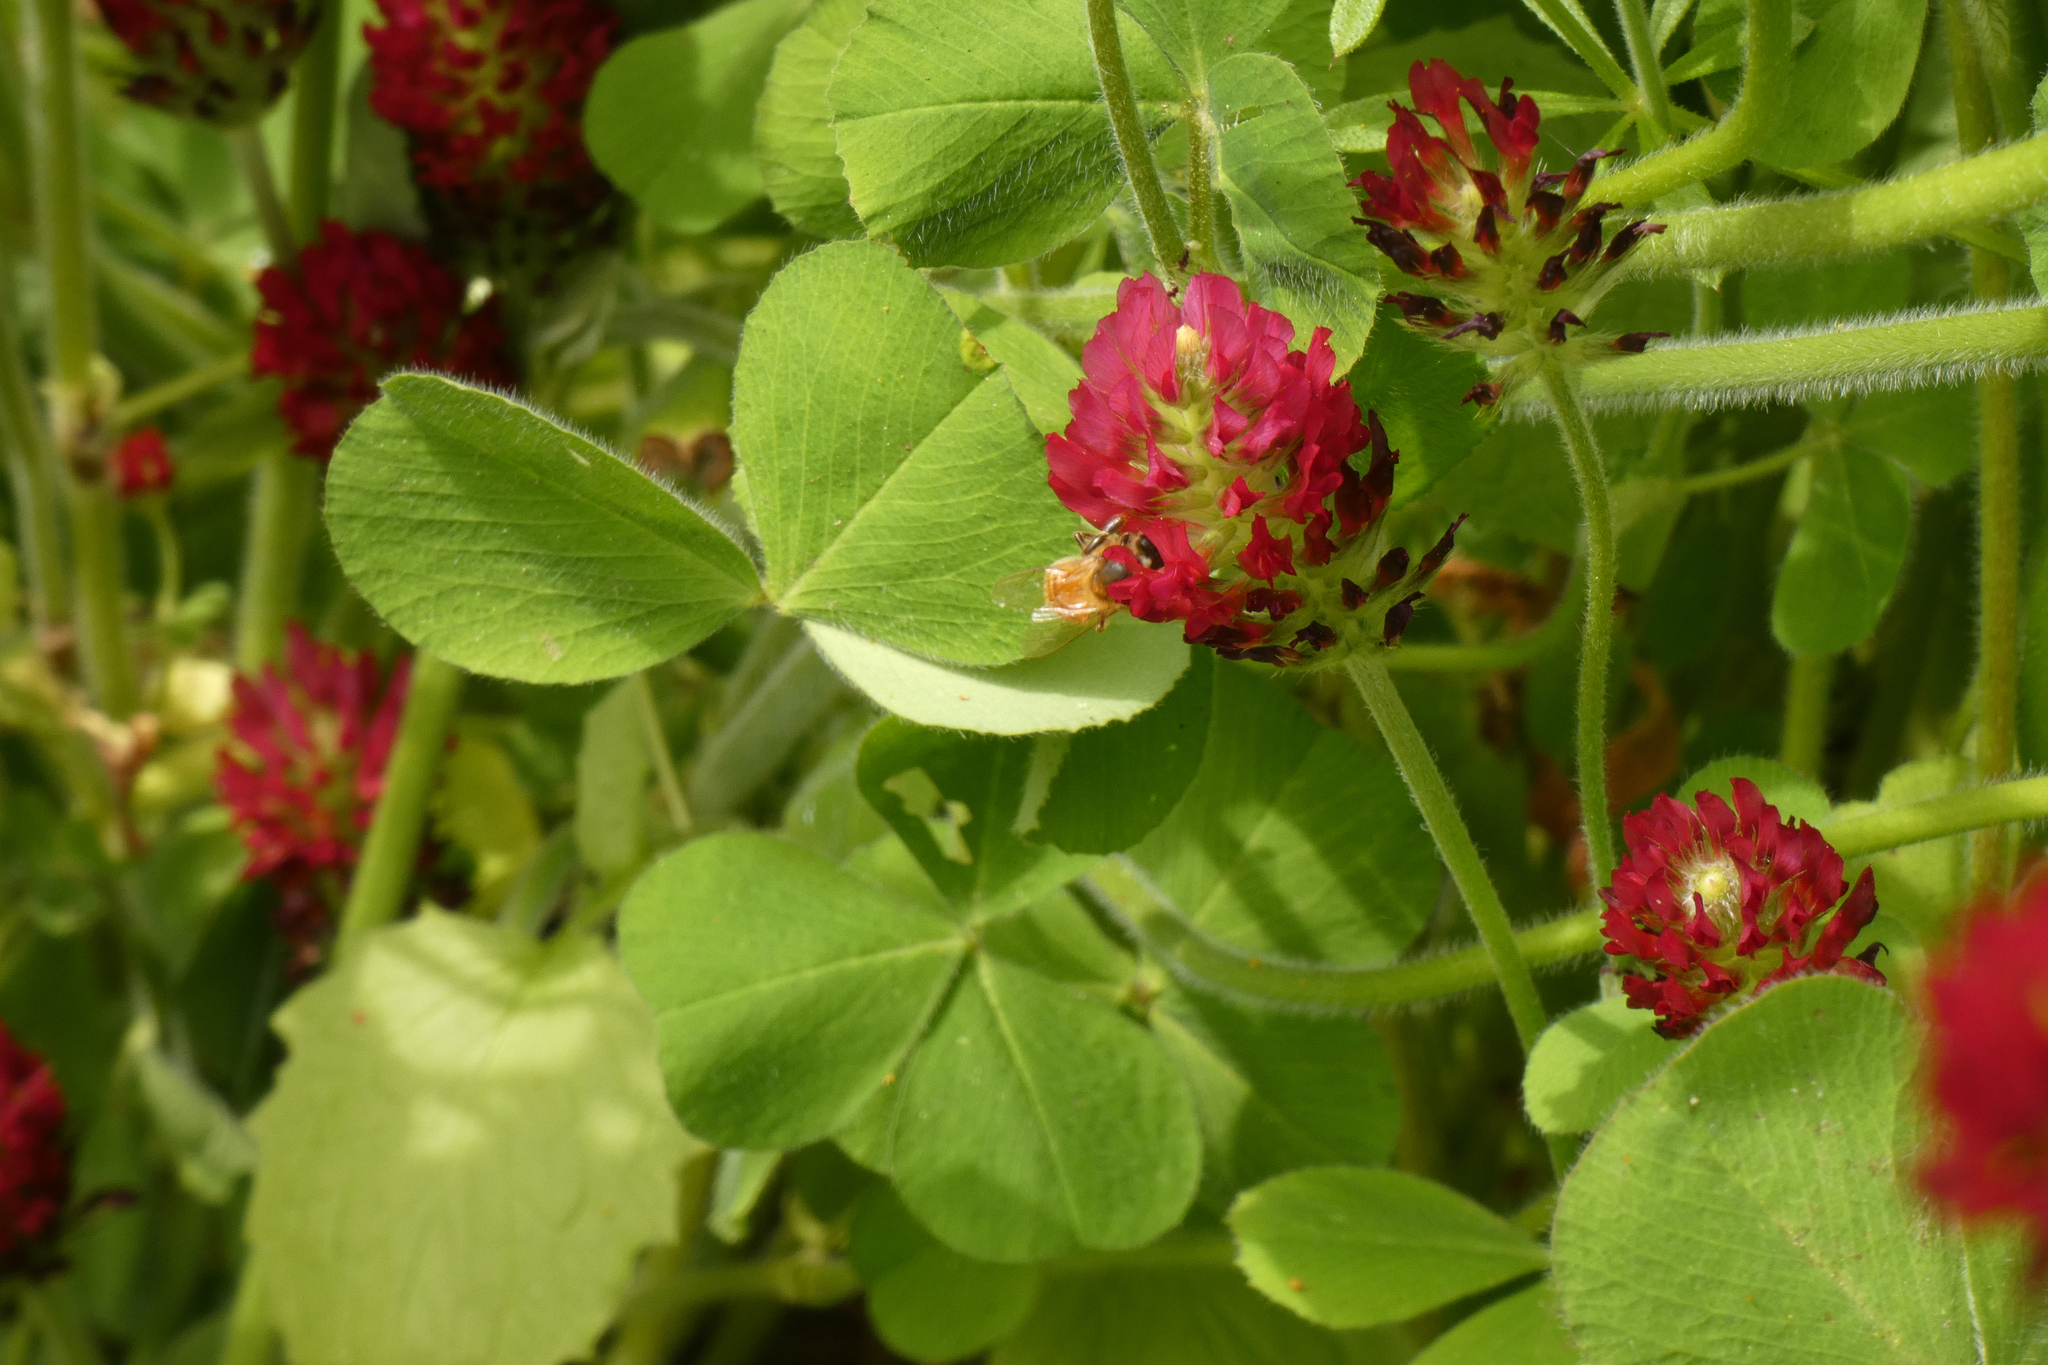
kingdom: Animalia
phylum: Arthropoda
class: Insecta
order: Hymenoptera
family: Apidae
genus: Apis
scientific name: Apis mellifera
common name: Honey bee
